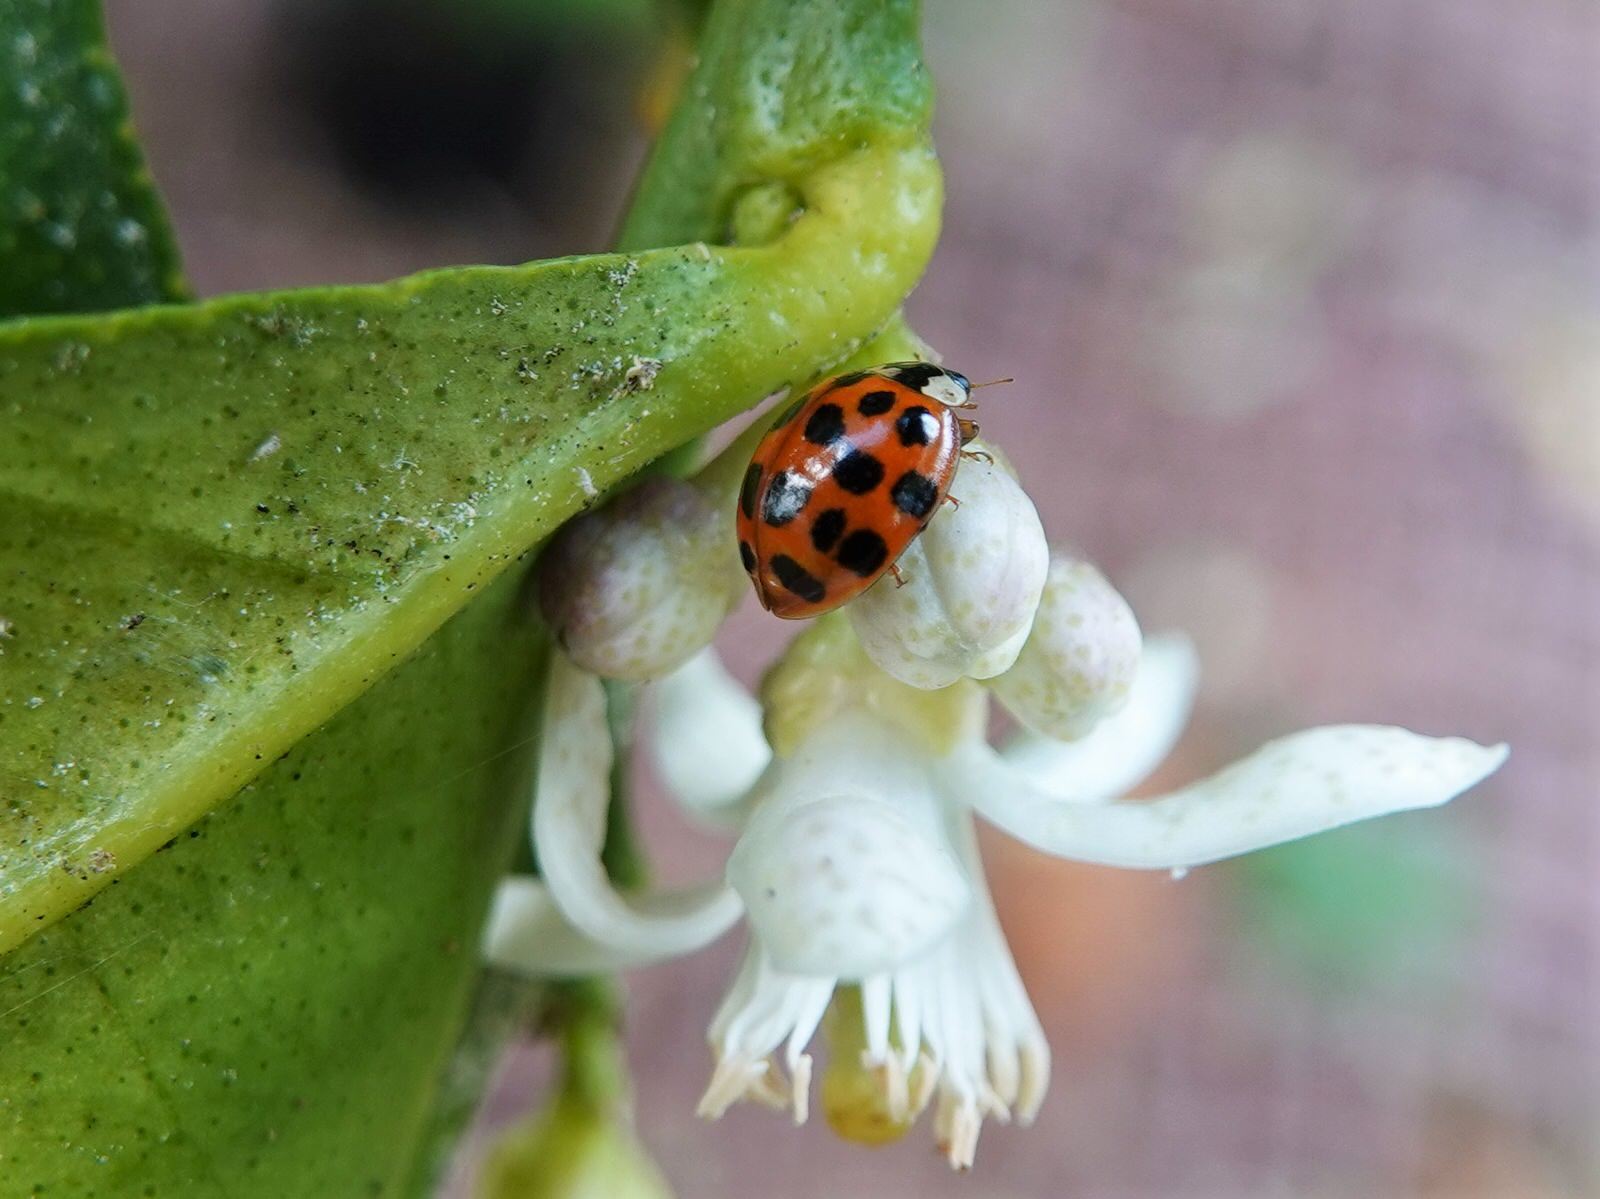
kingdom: Animalia
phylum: Arthropoda
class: Insecta
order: Coleoptera
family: Coccinellidae
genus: Harmonia
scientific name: Harmonia axyridis
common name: Harlequin ladybird
